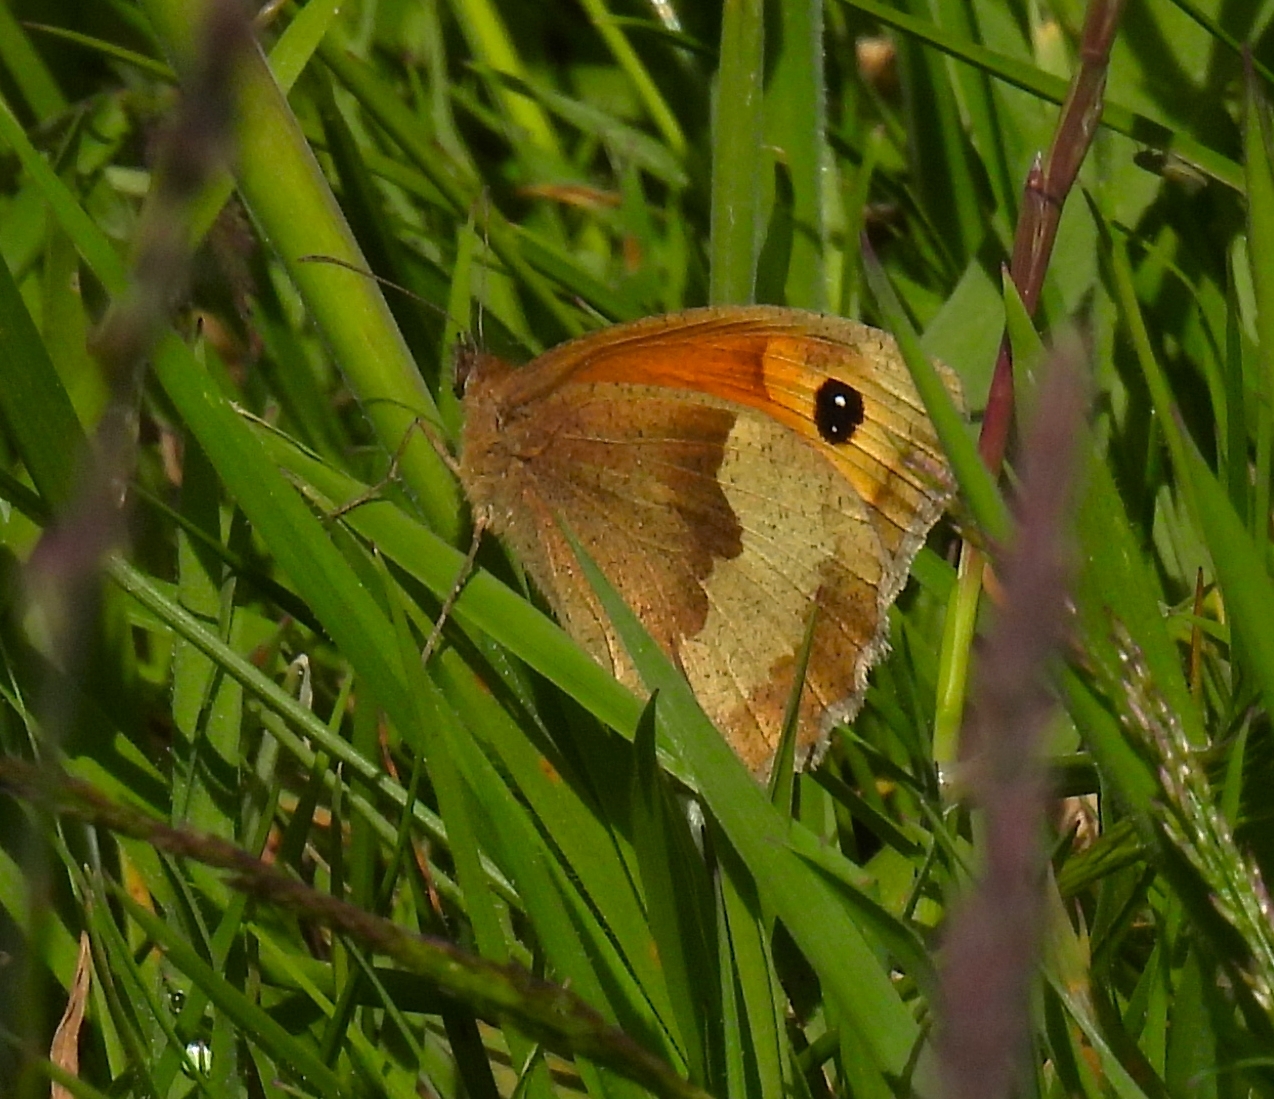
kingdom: Animalia
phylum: Arthropoda
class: Insecta
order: Lepidoptera
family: Nymphalidae
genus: Maniola
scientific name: Maniola jurtina
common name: Meadow brown
